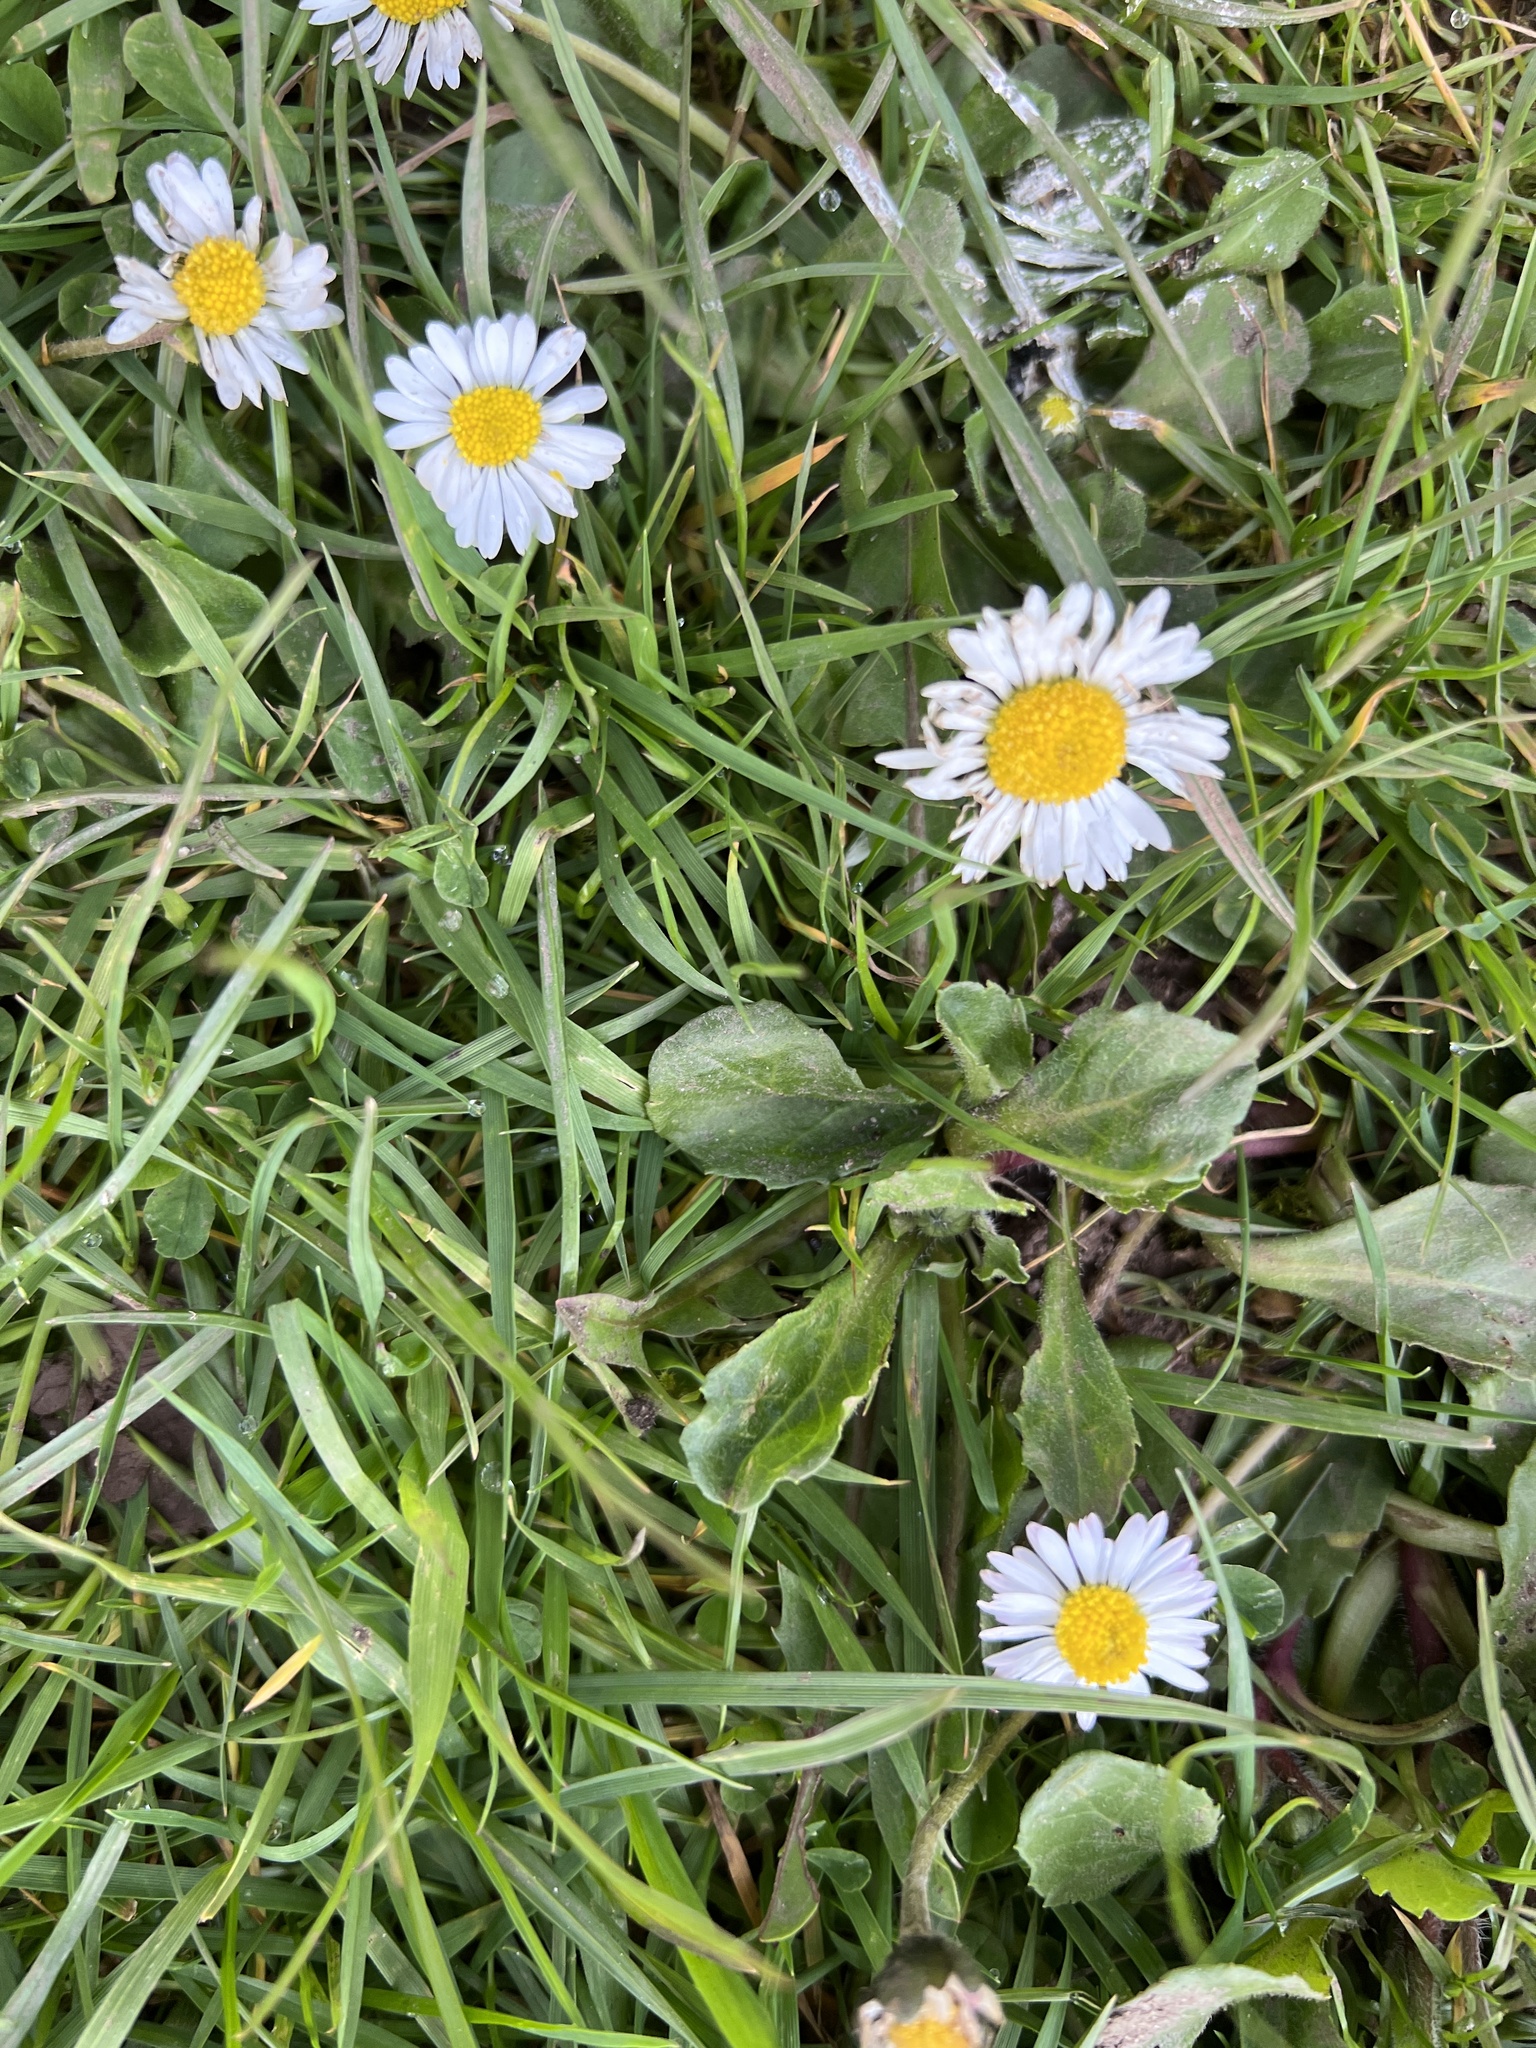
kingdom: Plantae
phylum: Tracheophyta
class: Magnoliopsida
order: Asterales
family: Asteraceae
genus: Bellis
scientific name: Bellis perennis
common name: Lawndaisy
